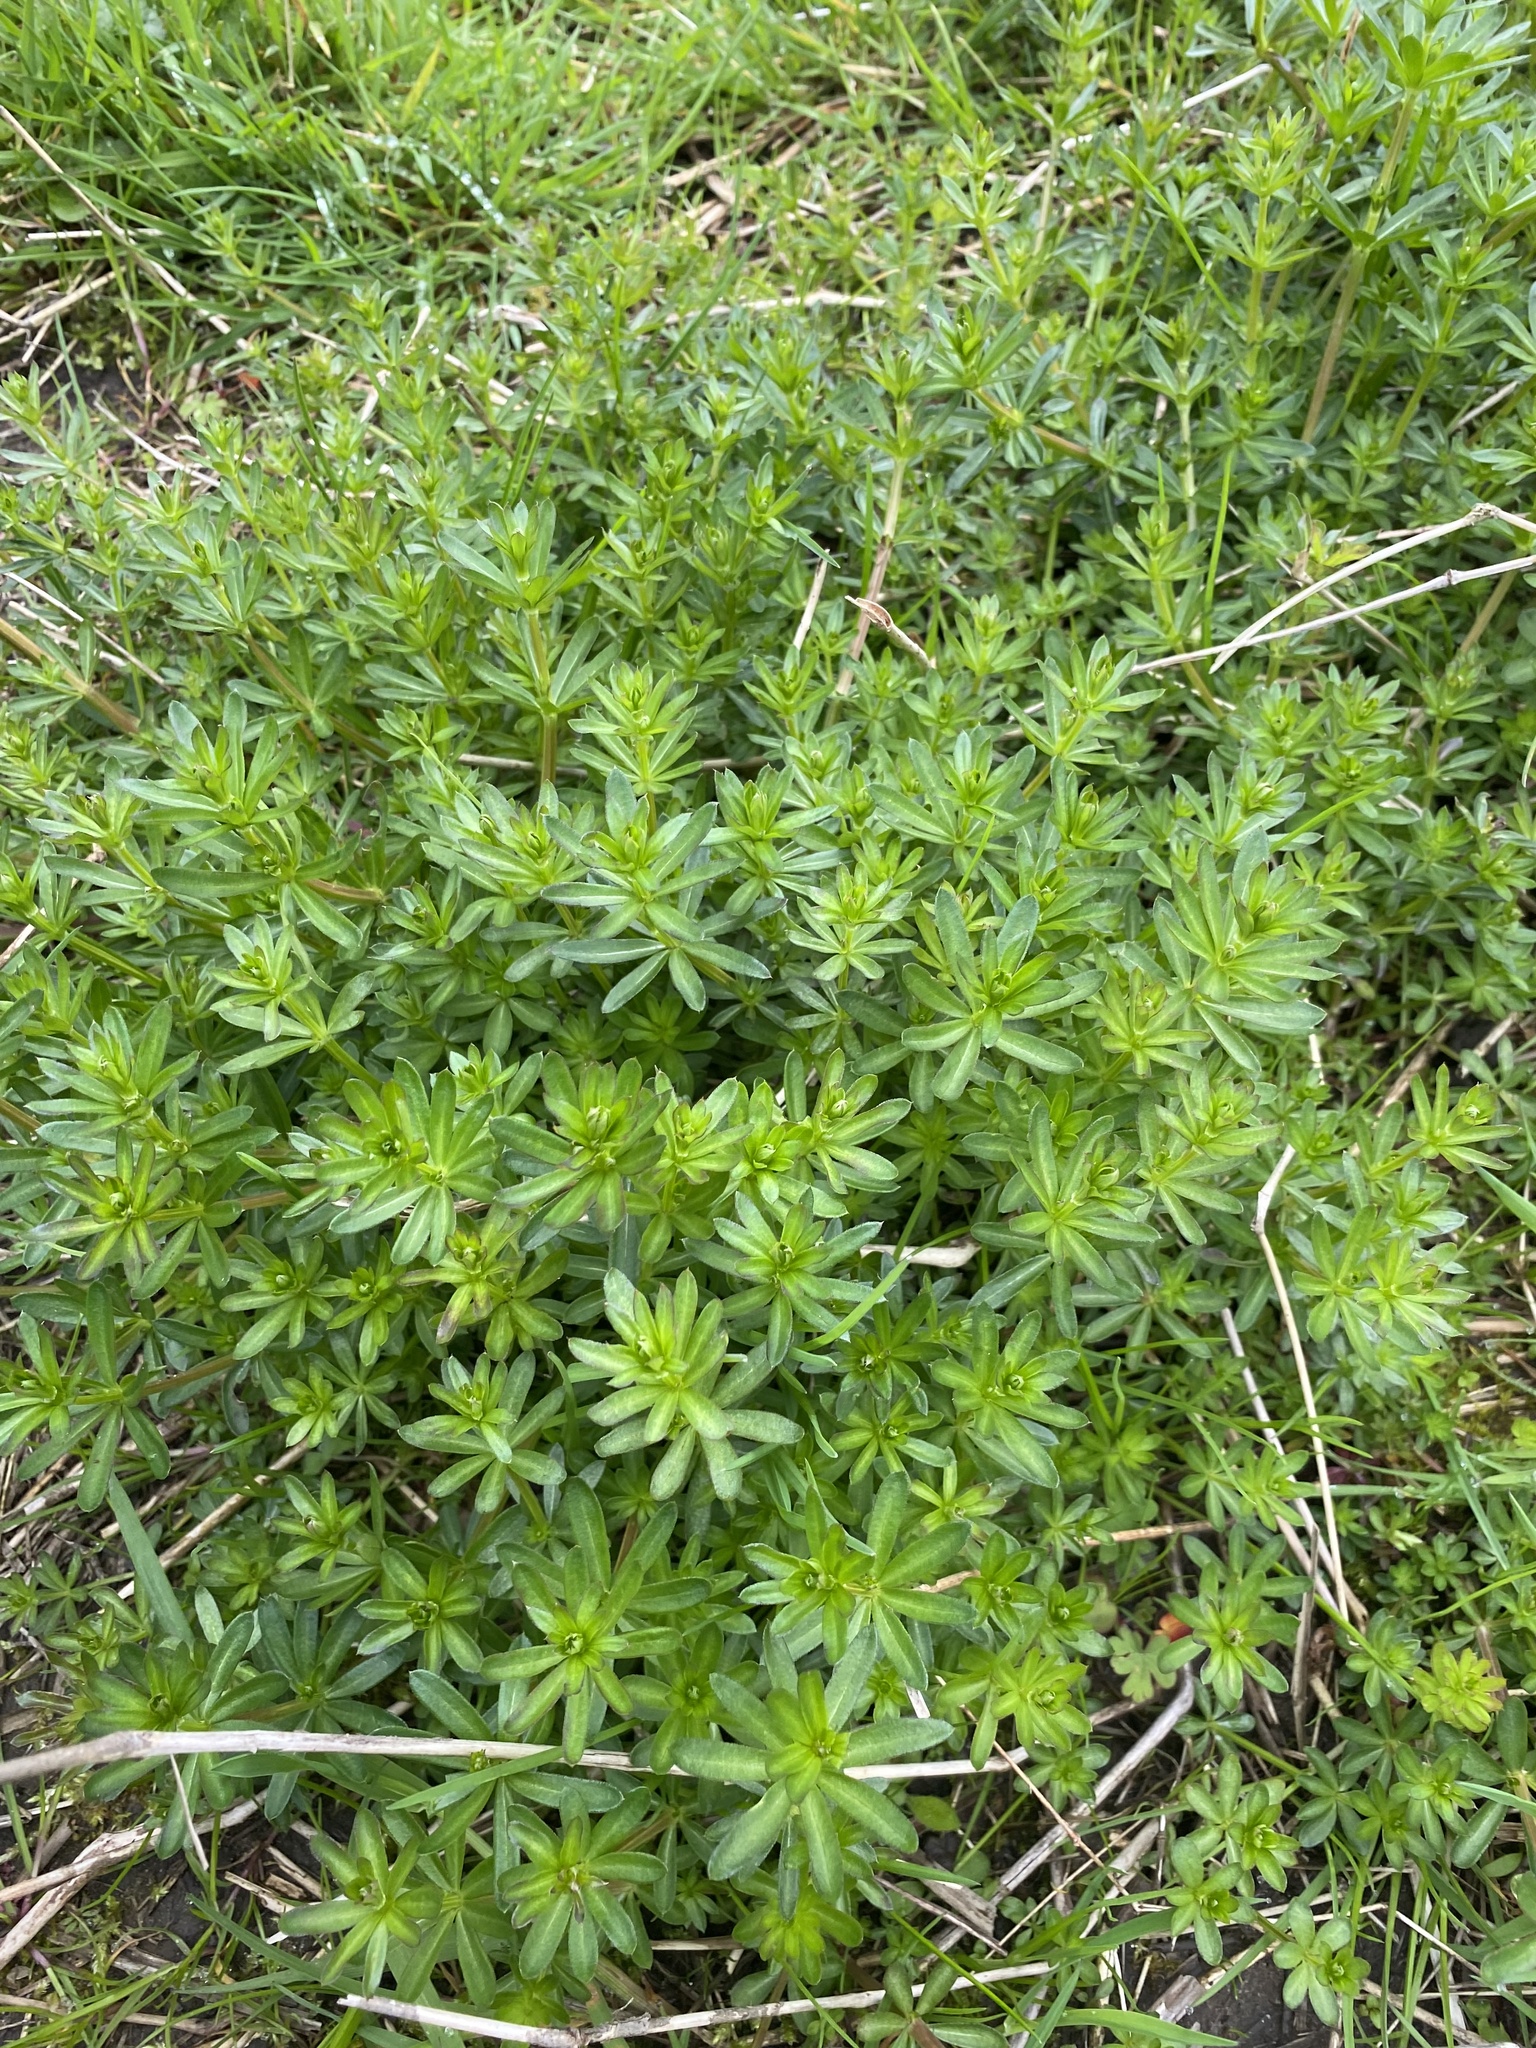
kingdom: Plantae
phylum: Tracheophyta
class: Magnoliopsida
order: Gentianales
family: Rubiaceae
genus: Galium
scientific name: Galium mollugo
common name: Hedge bedstraw
